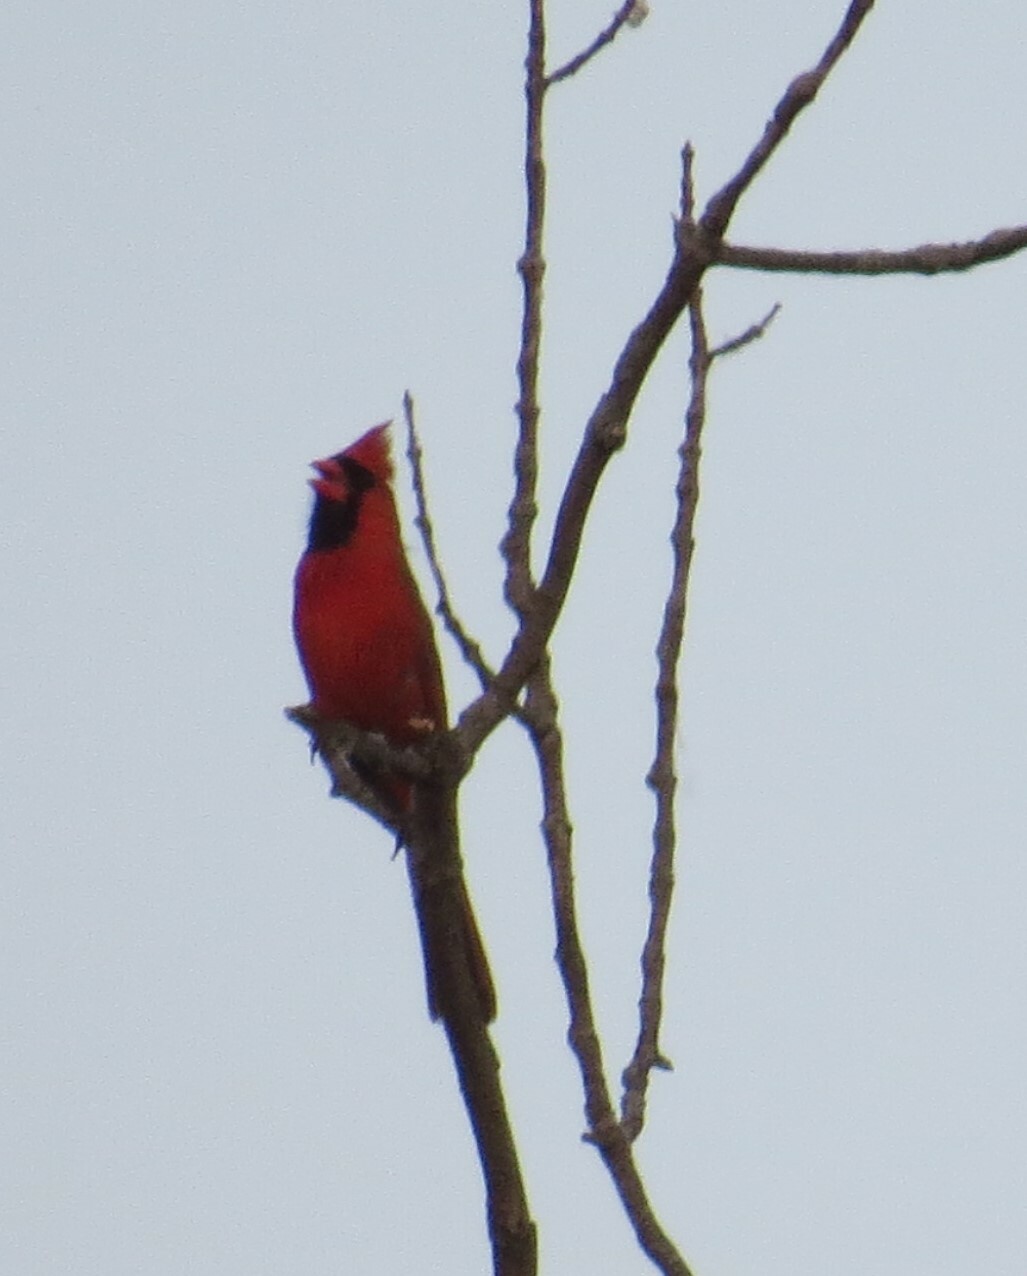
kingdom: Animalia
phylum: Chordata
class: Aves
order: Passeriformes
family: Cardinalidae
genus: Cardinalis
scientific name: Cardinalis cardinalis
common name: Northern cardinal
